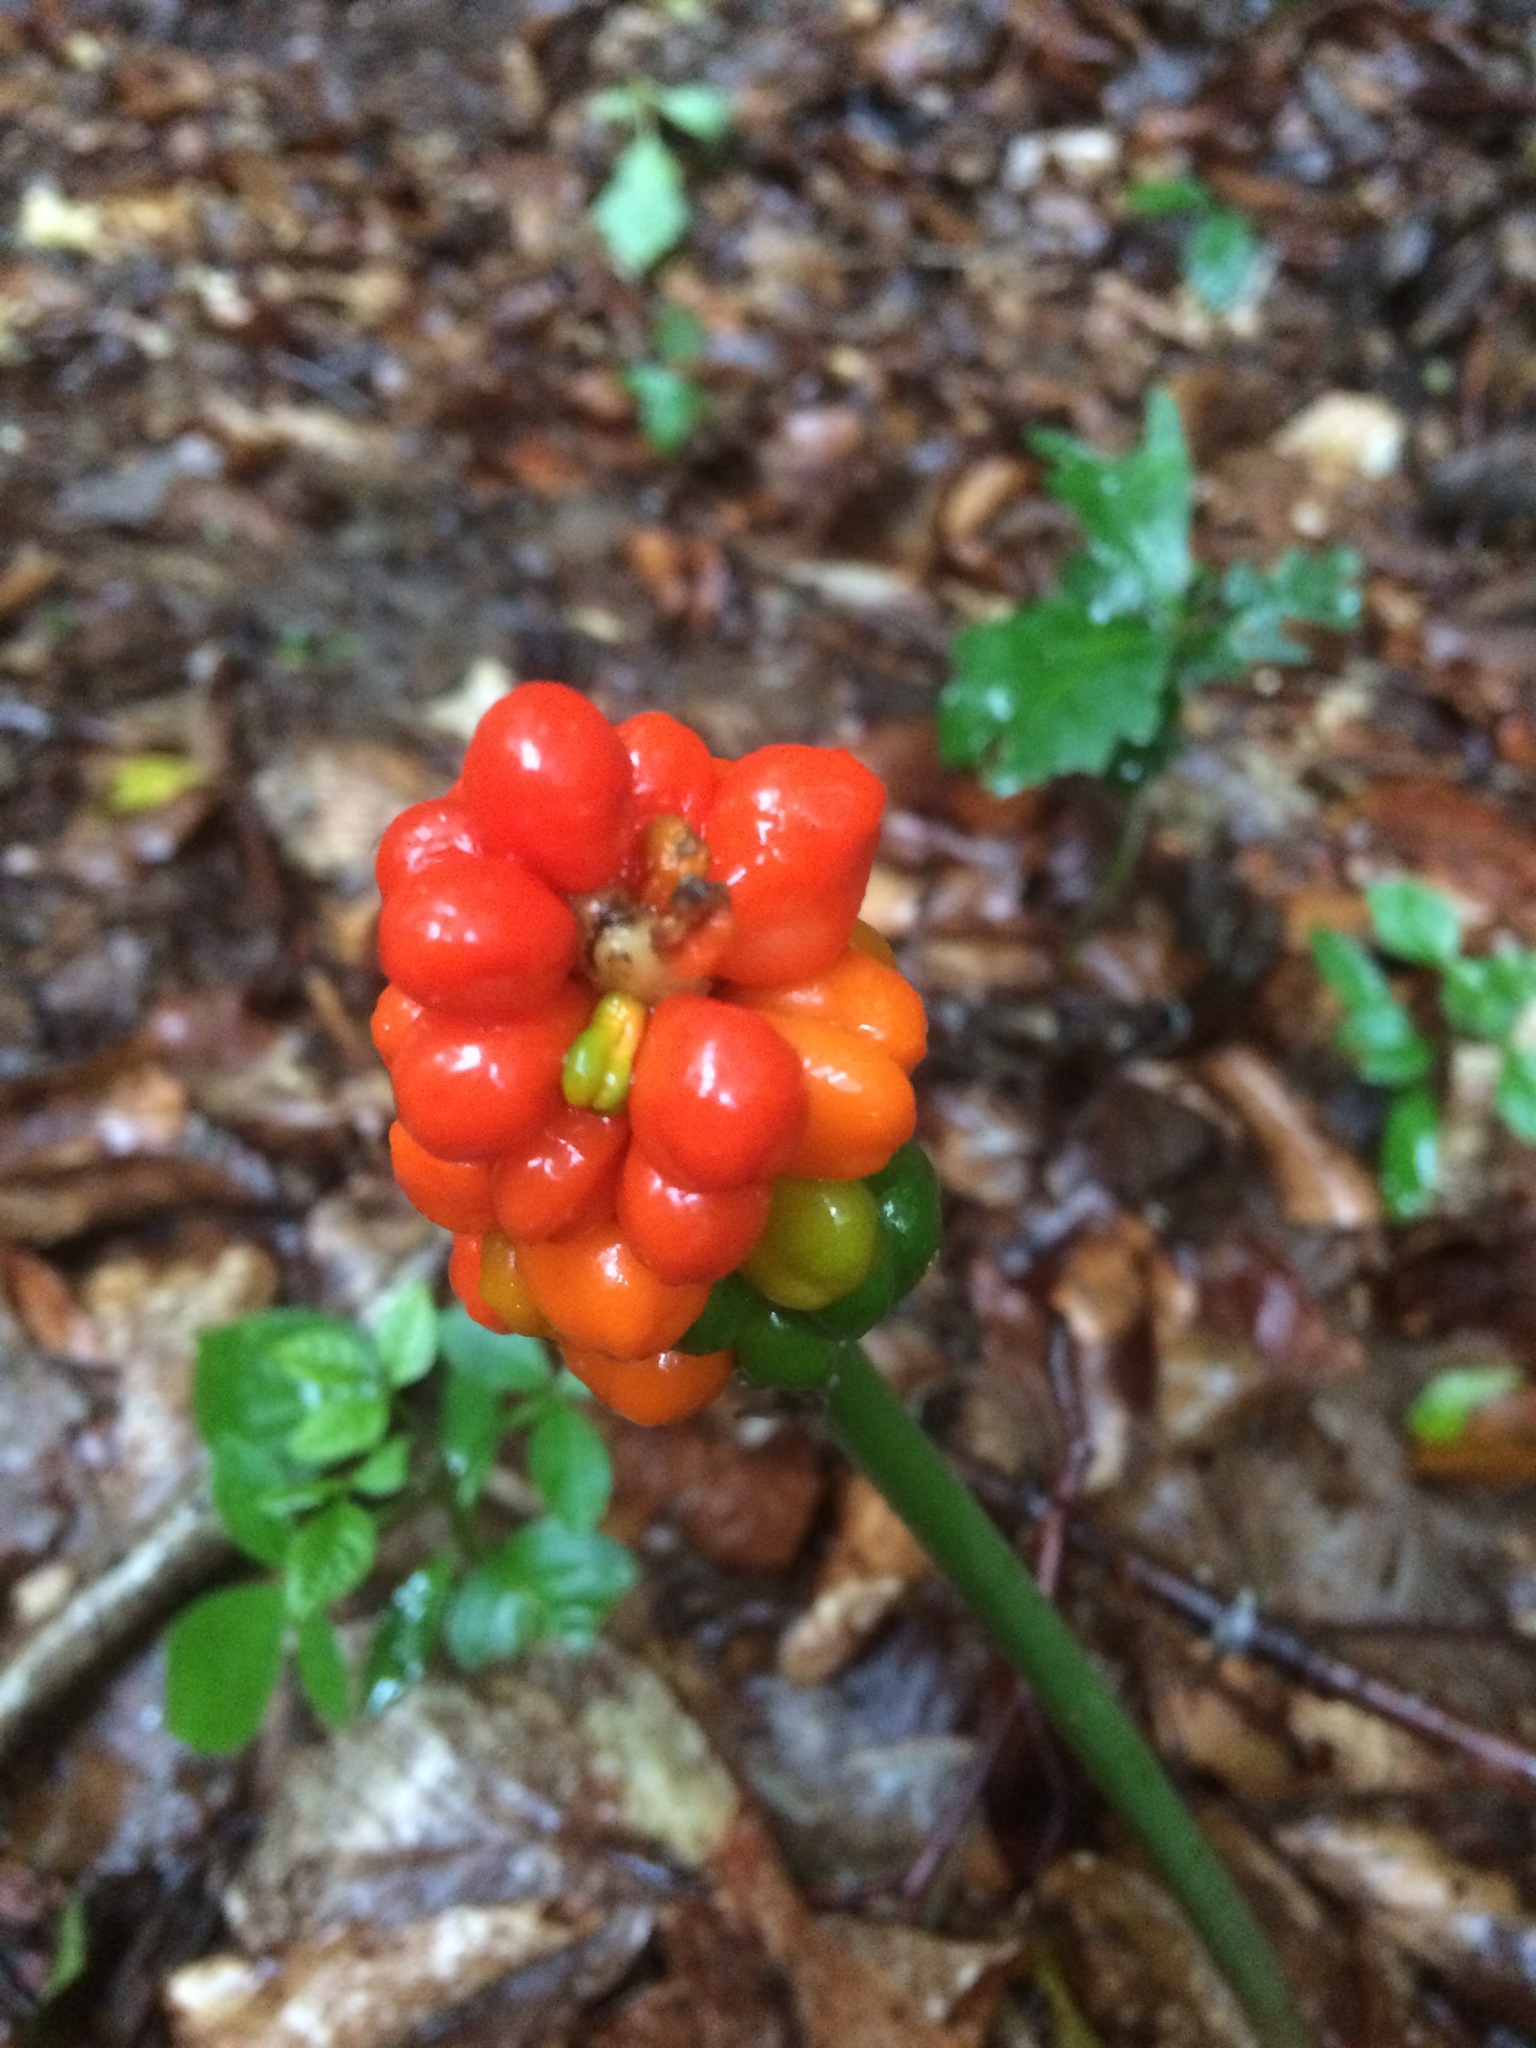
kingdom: Plantae
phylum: Tracheophyta
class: Liliopsida
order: Alismatales
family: Araceae
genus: Arum
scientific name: Arum cylindraceum
